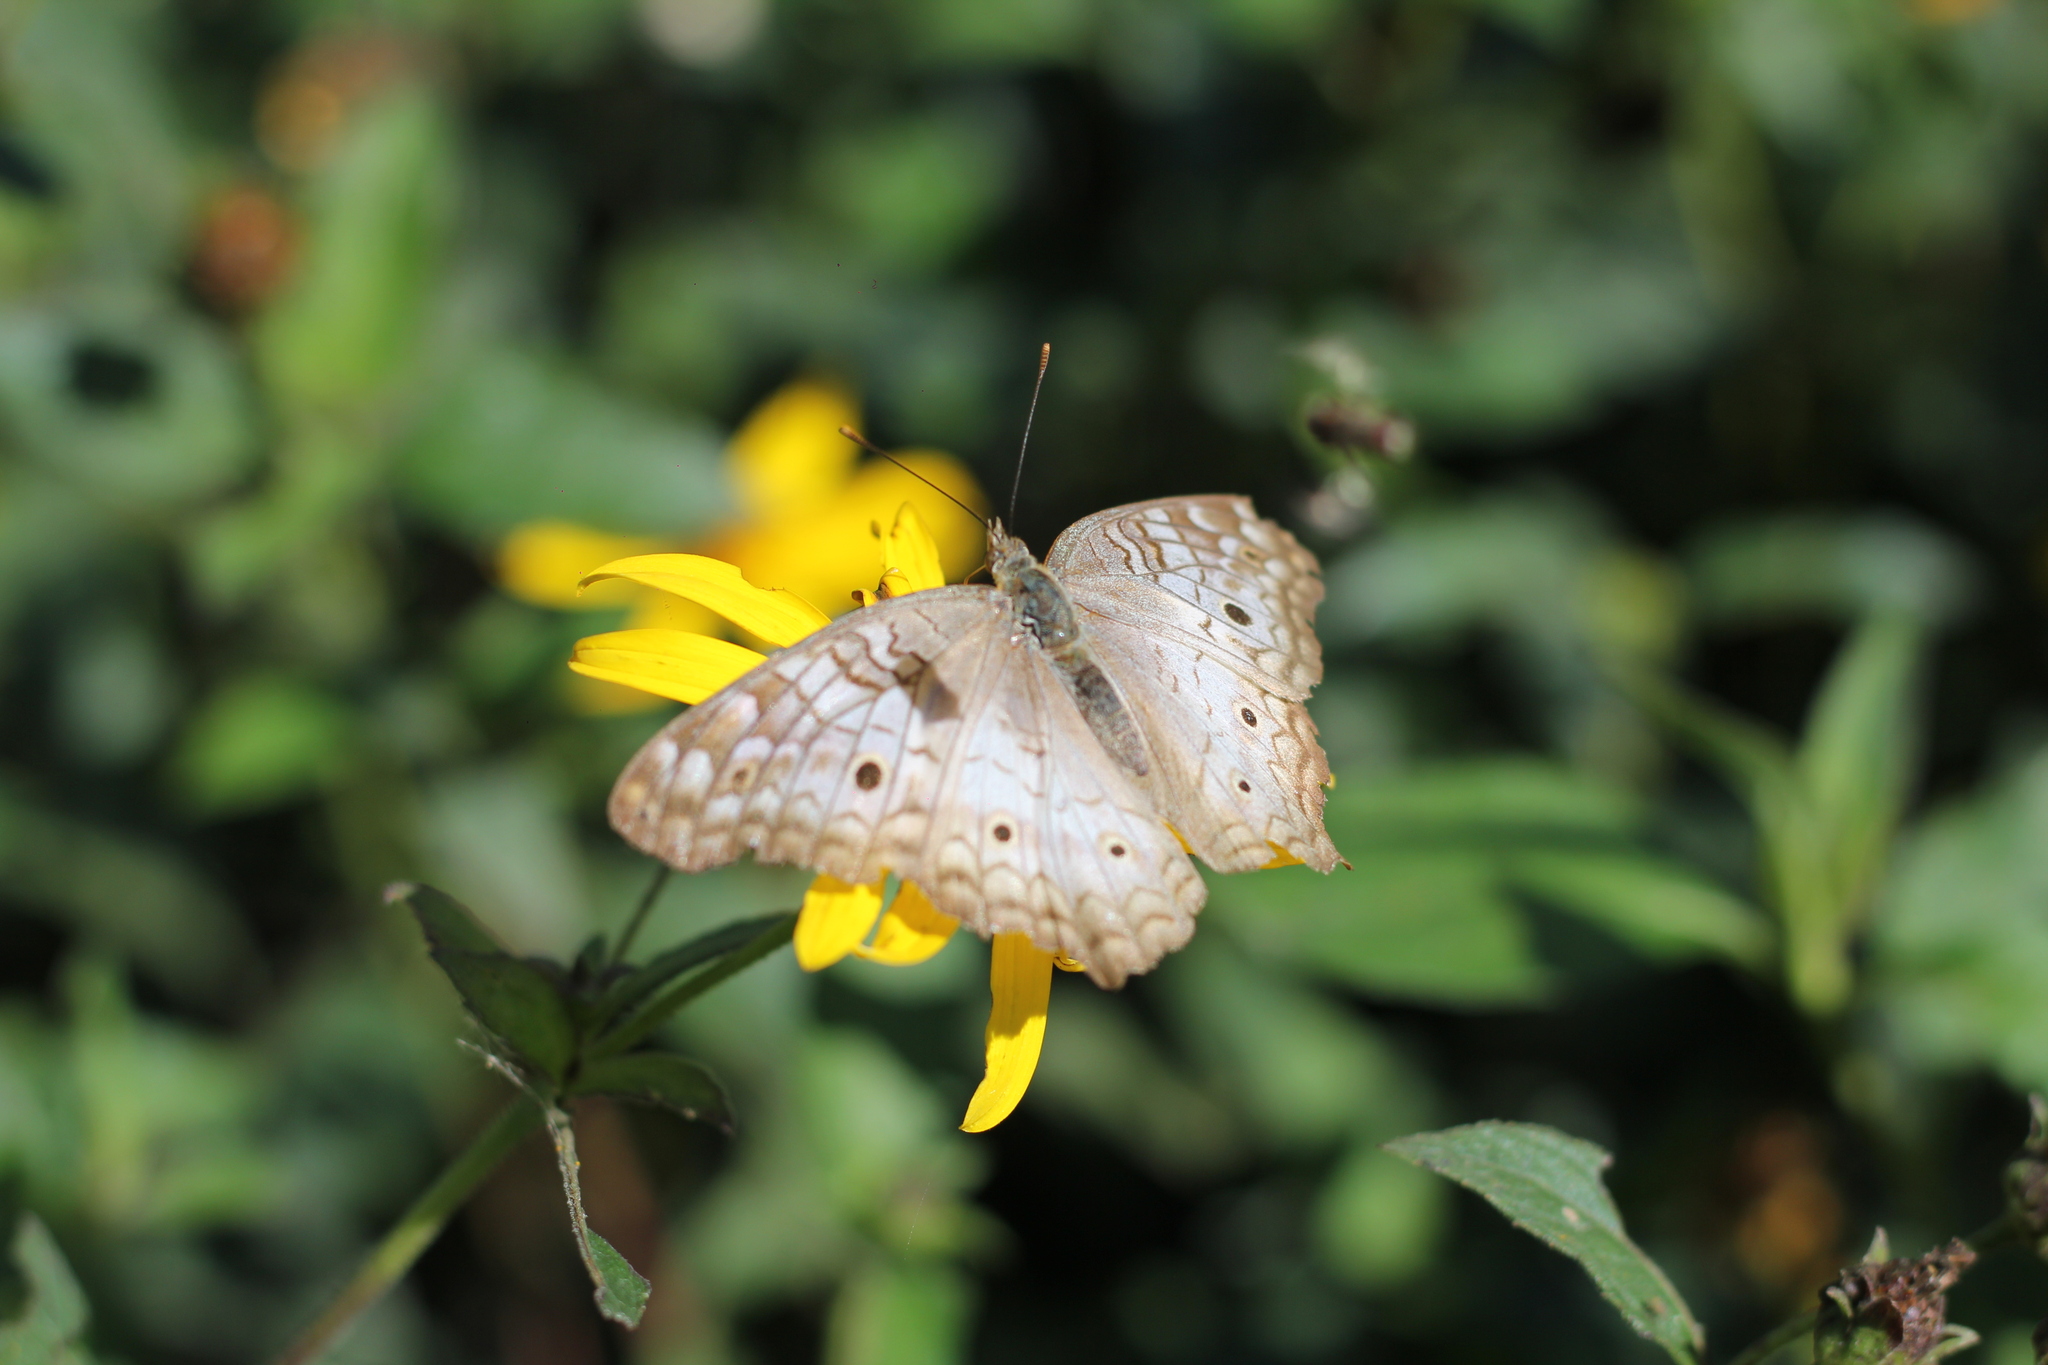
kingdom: Animalia
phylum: Arthropoda
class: Insecta
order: Lepidoptera
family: Nymphalidae
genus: Anartia
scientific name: Anartia jatrophae
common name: White peacock
